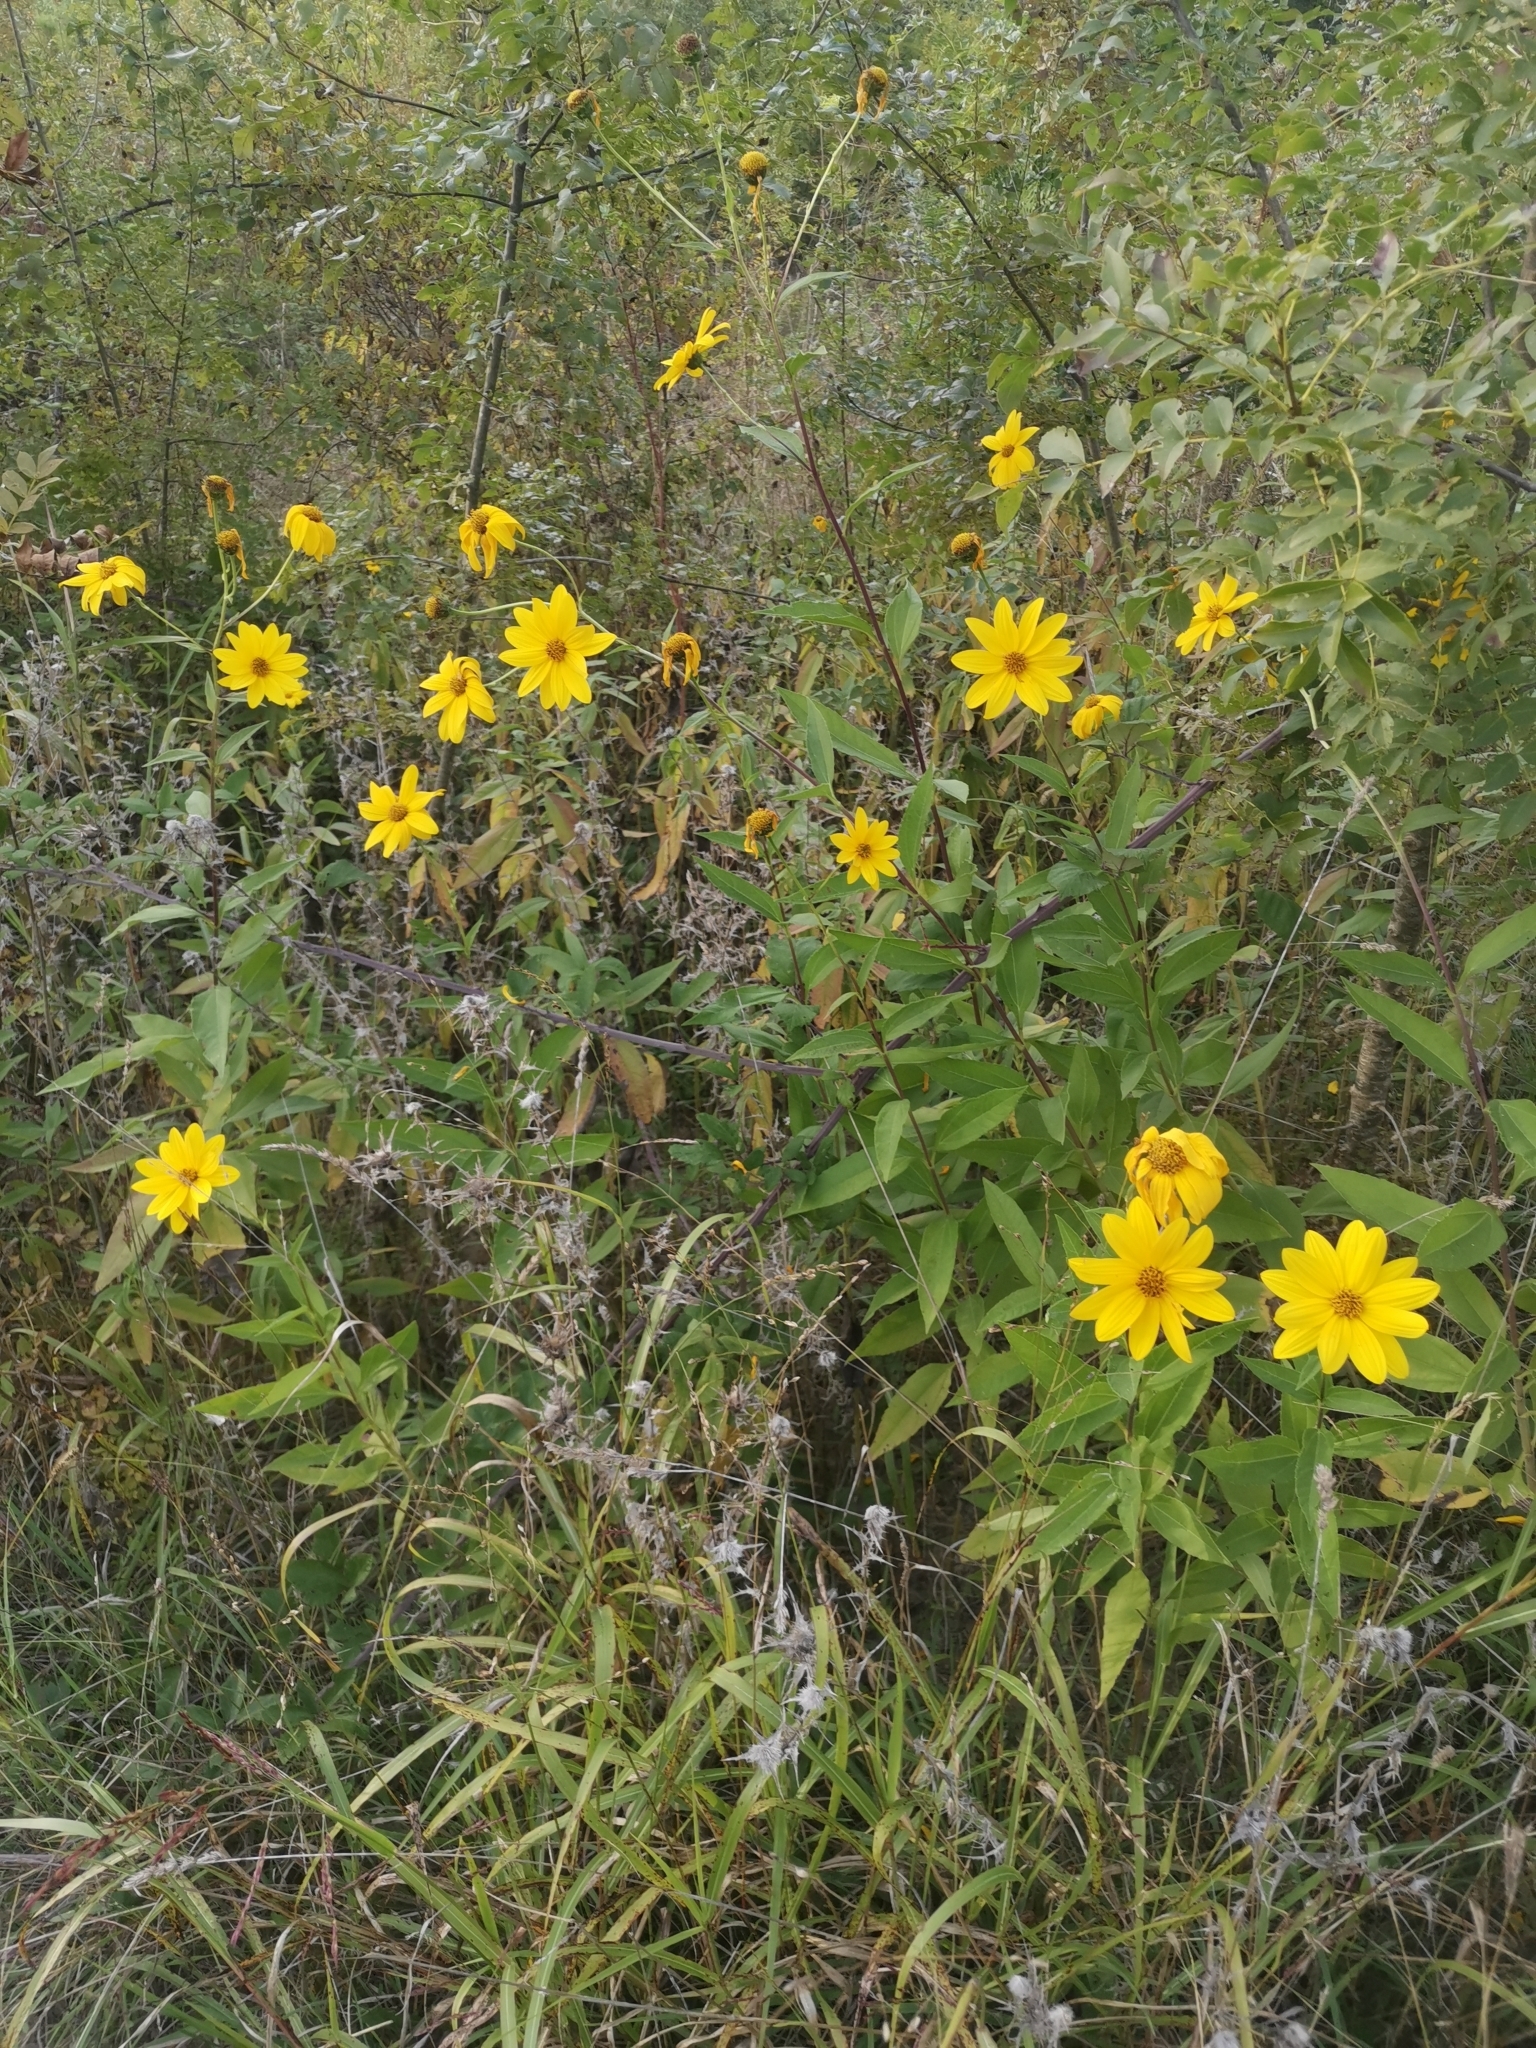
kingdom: Plantae
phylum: Tracheophyta
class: Magnoliopsida
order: Asterales
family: Asteraceae
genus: Helianthus
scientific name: Helianthus tuberosus
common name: Jerusalem artichoke
